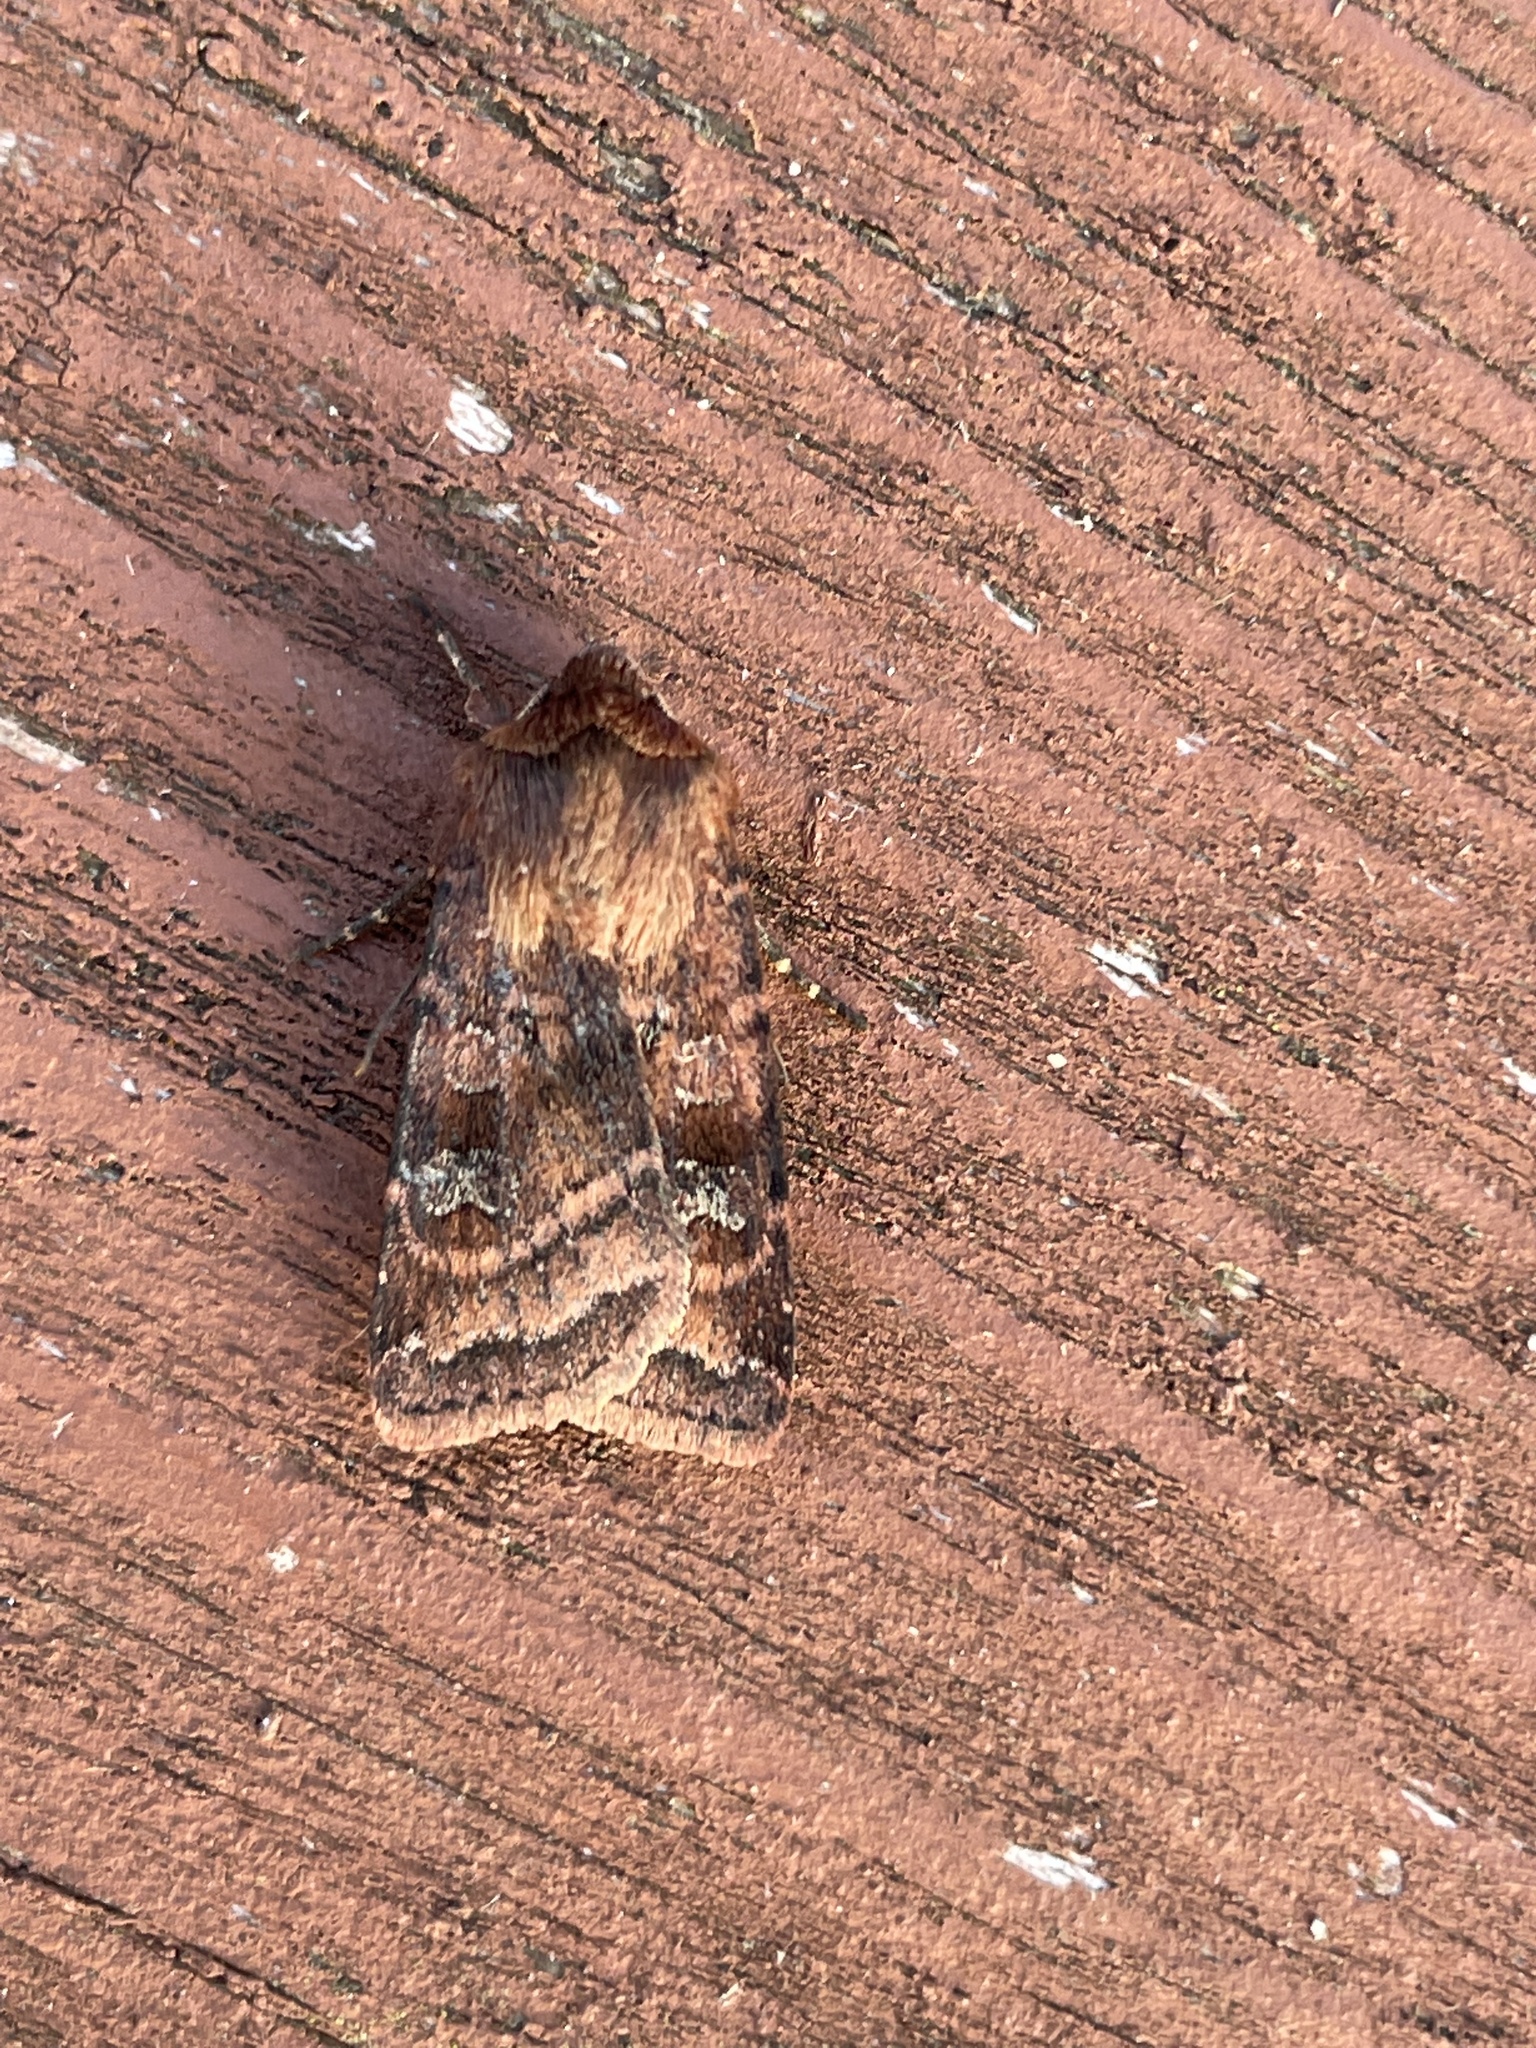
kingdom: Animalia
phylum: Arthropoda
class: Insecta
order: Lepidoptera
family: Noctuidae
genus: Diarsia
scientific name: Diarsia rubi
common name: Small square-spot
